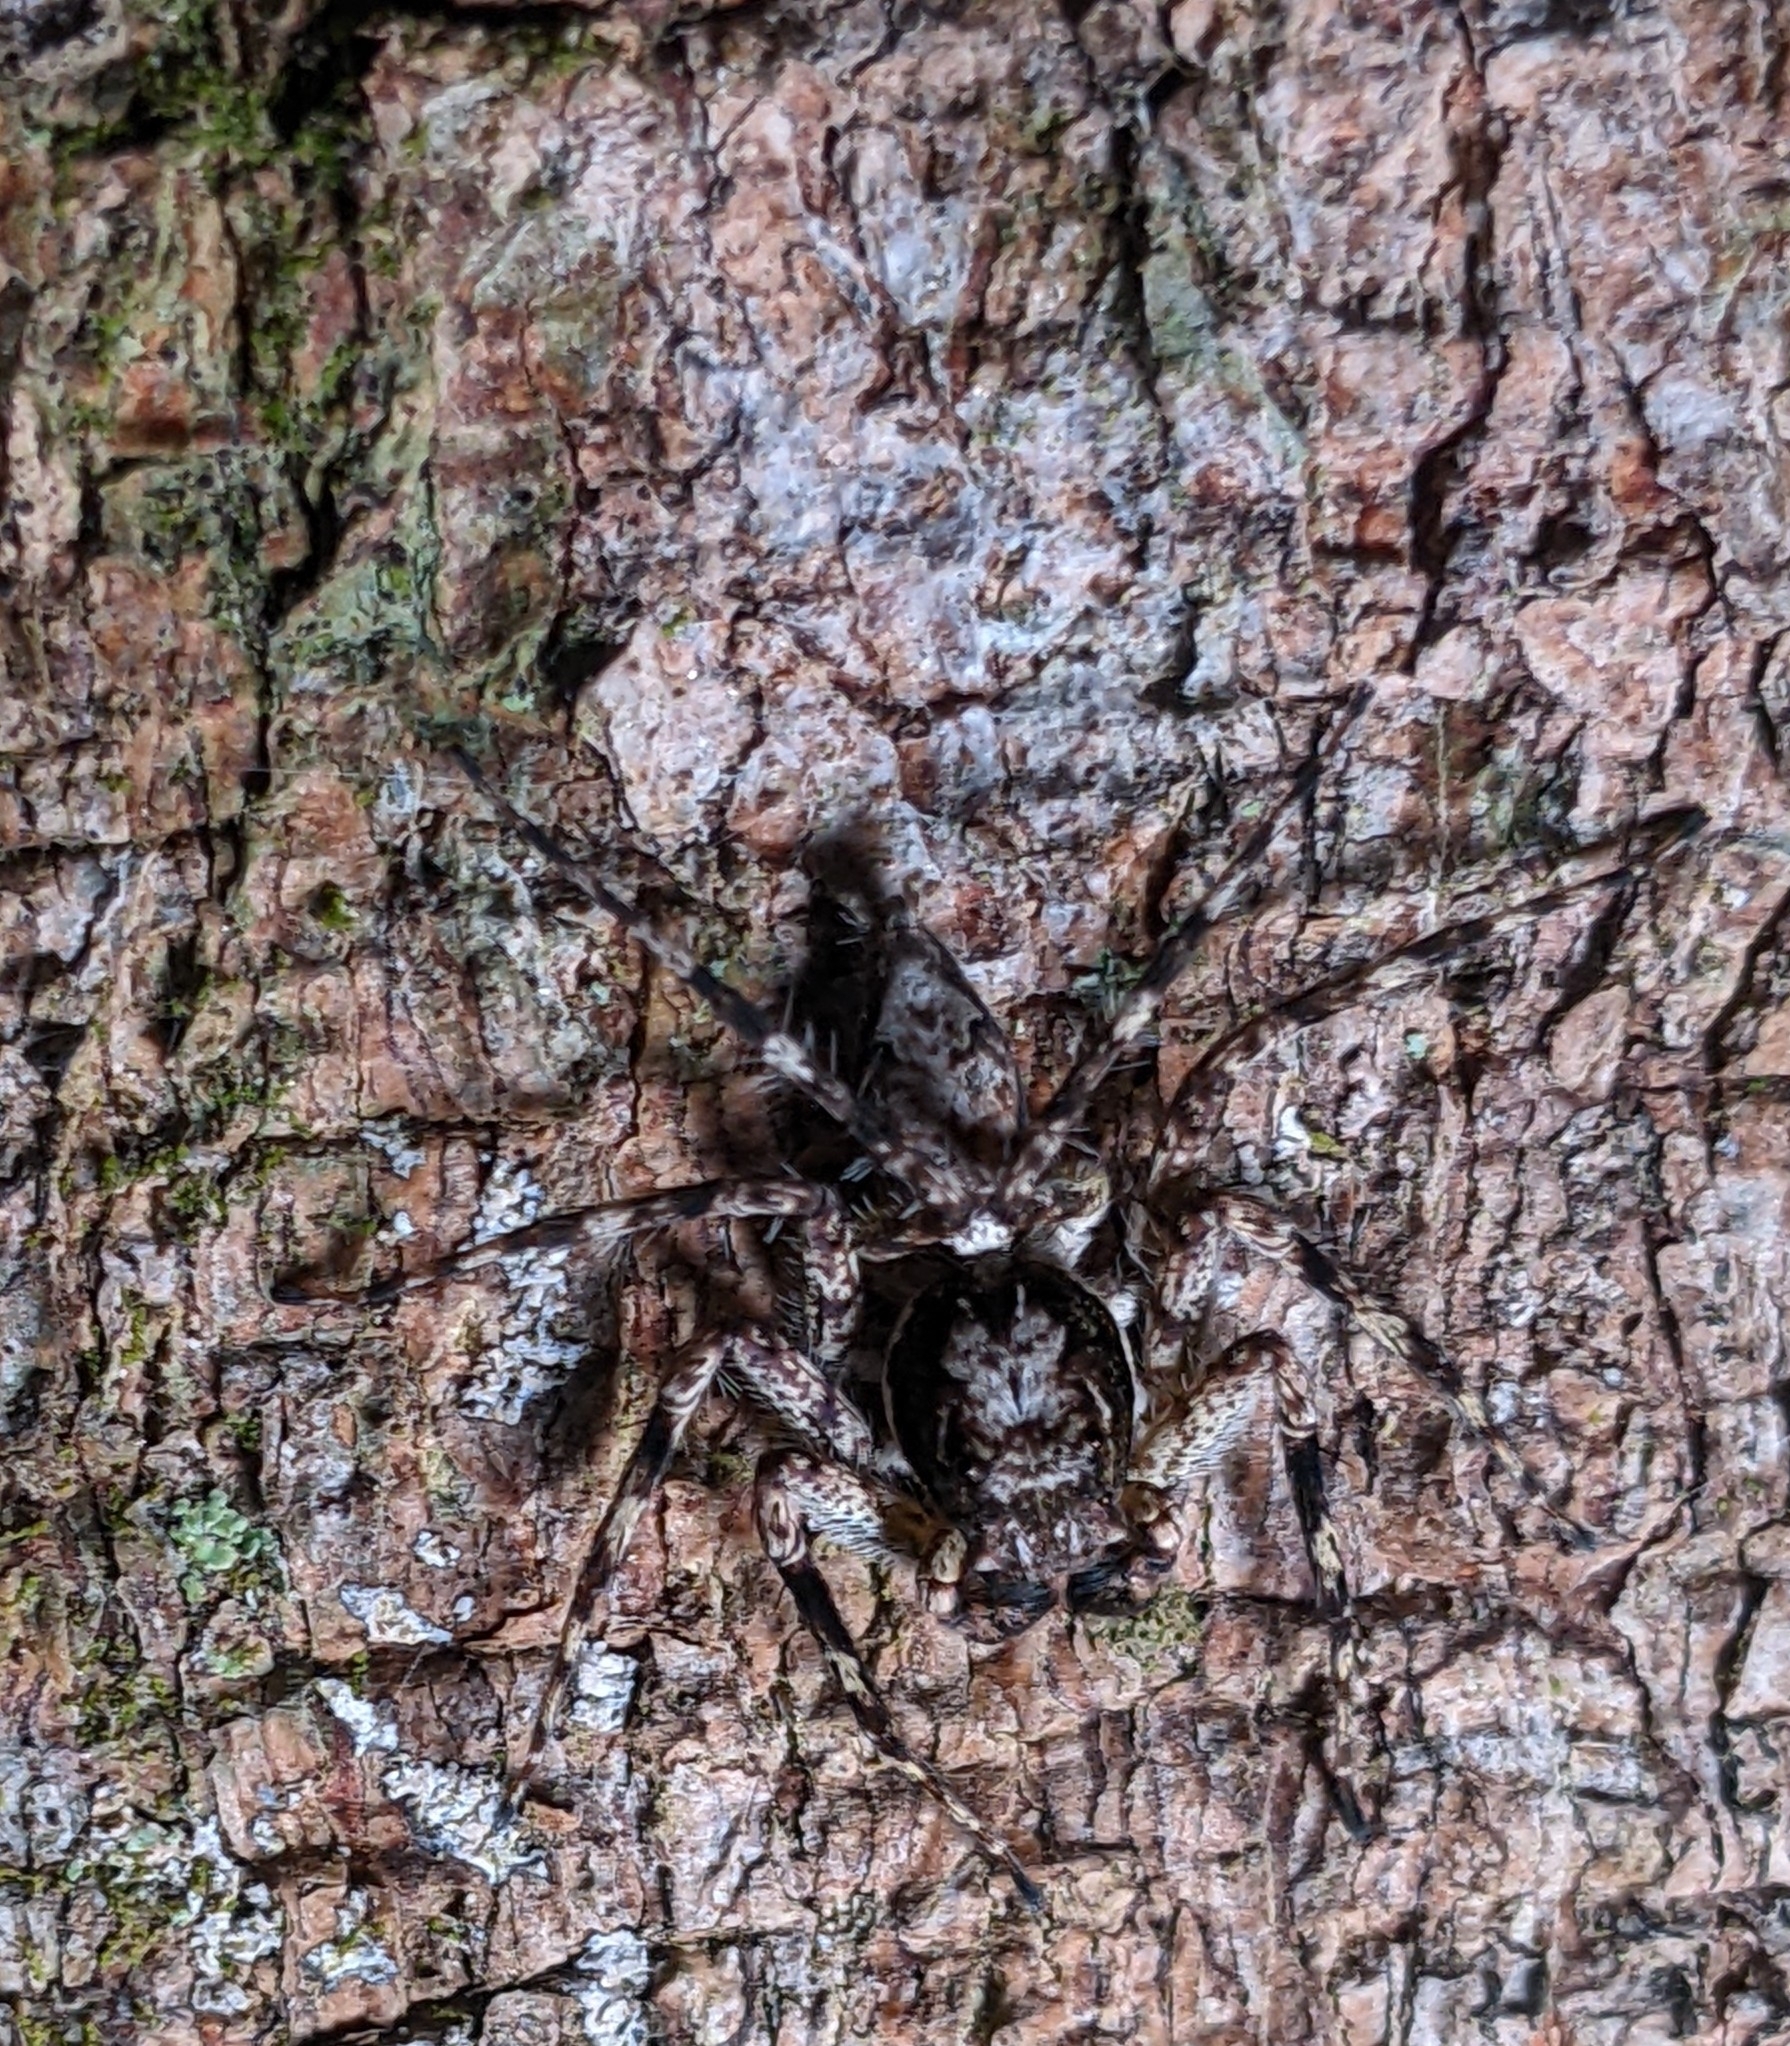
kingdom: Animalia
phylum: Arthropoda
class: Arachnida
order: Araneae
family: Salticidae
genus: Phaeacius
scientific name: Phaeacius malayensis
